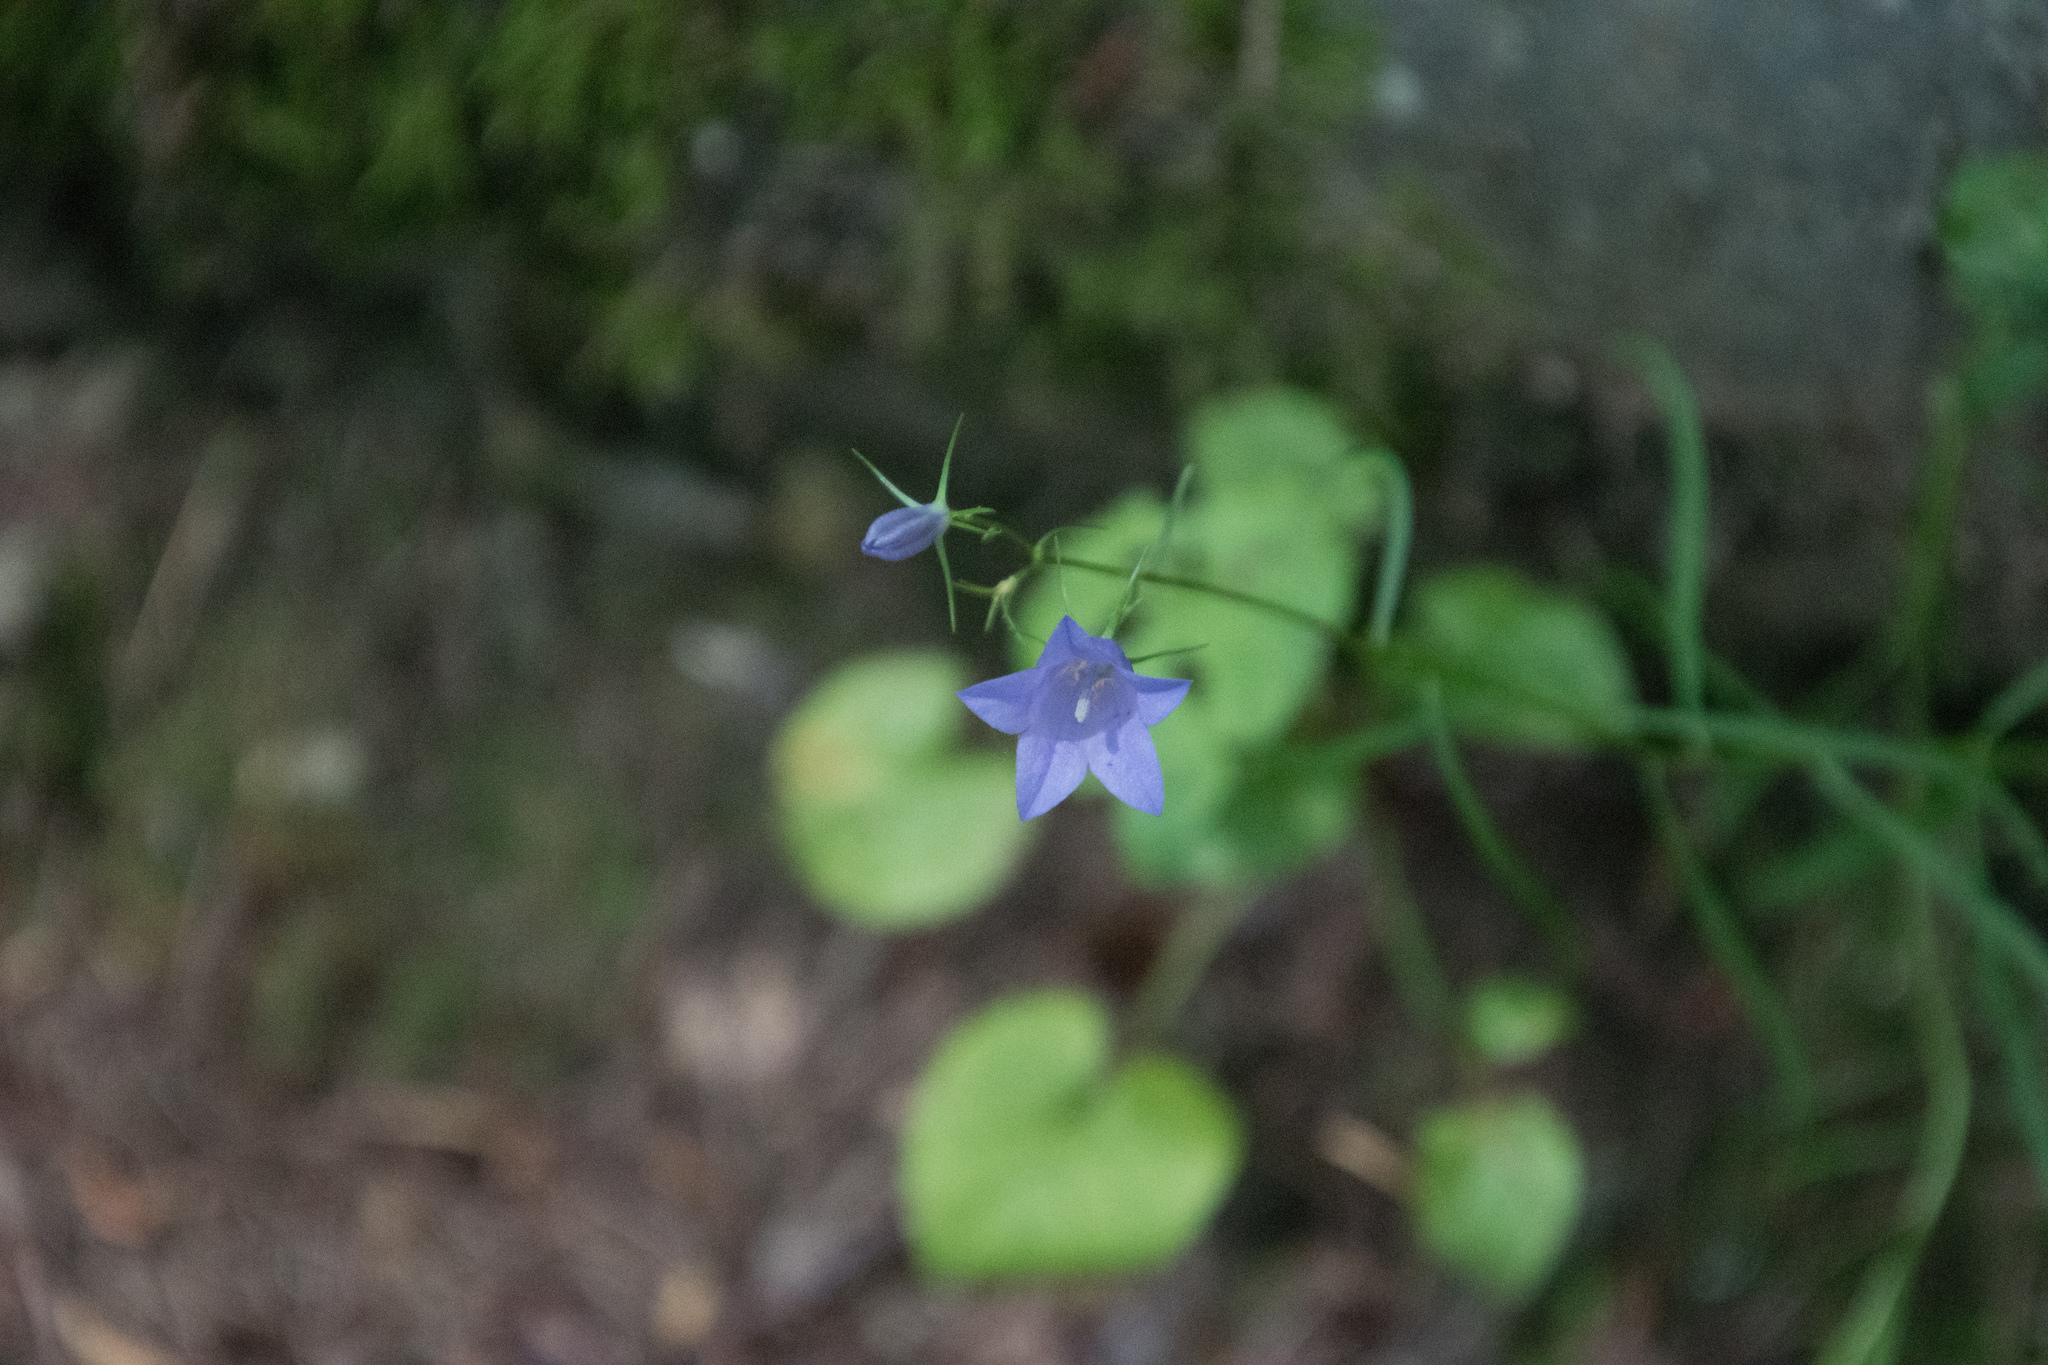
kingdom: Plantae
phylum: Tracheophyta
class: Magnoliopsida
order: Asterales
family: Campanulaceae
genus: Campanula
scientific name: Campanula rotundifolia
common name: Harebell
